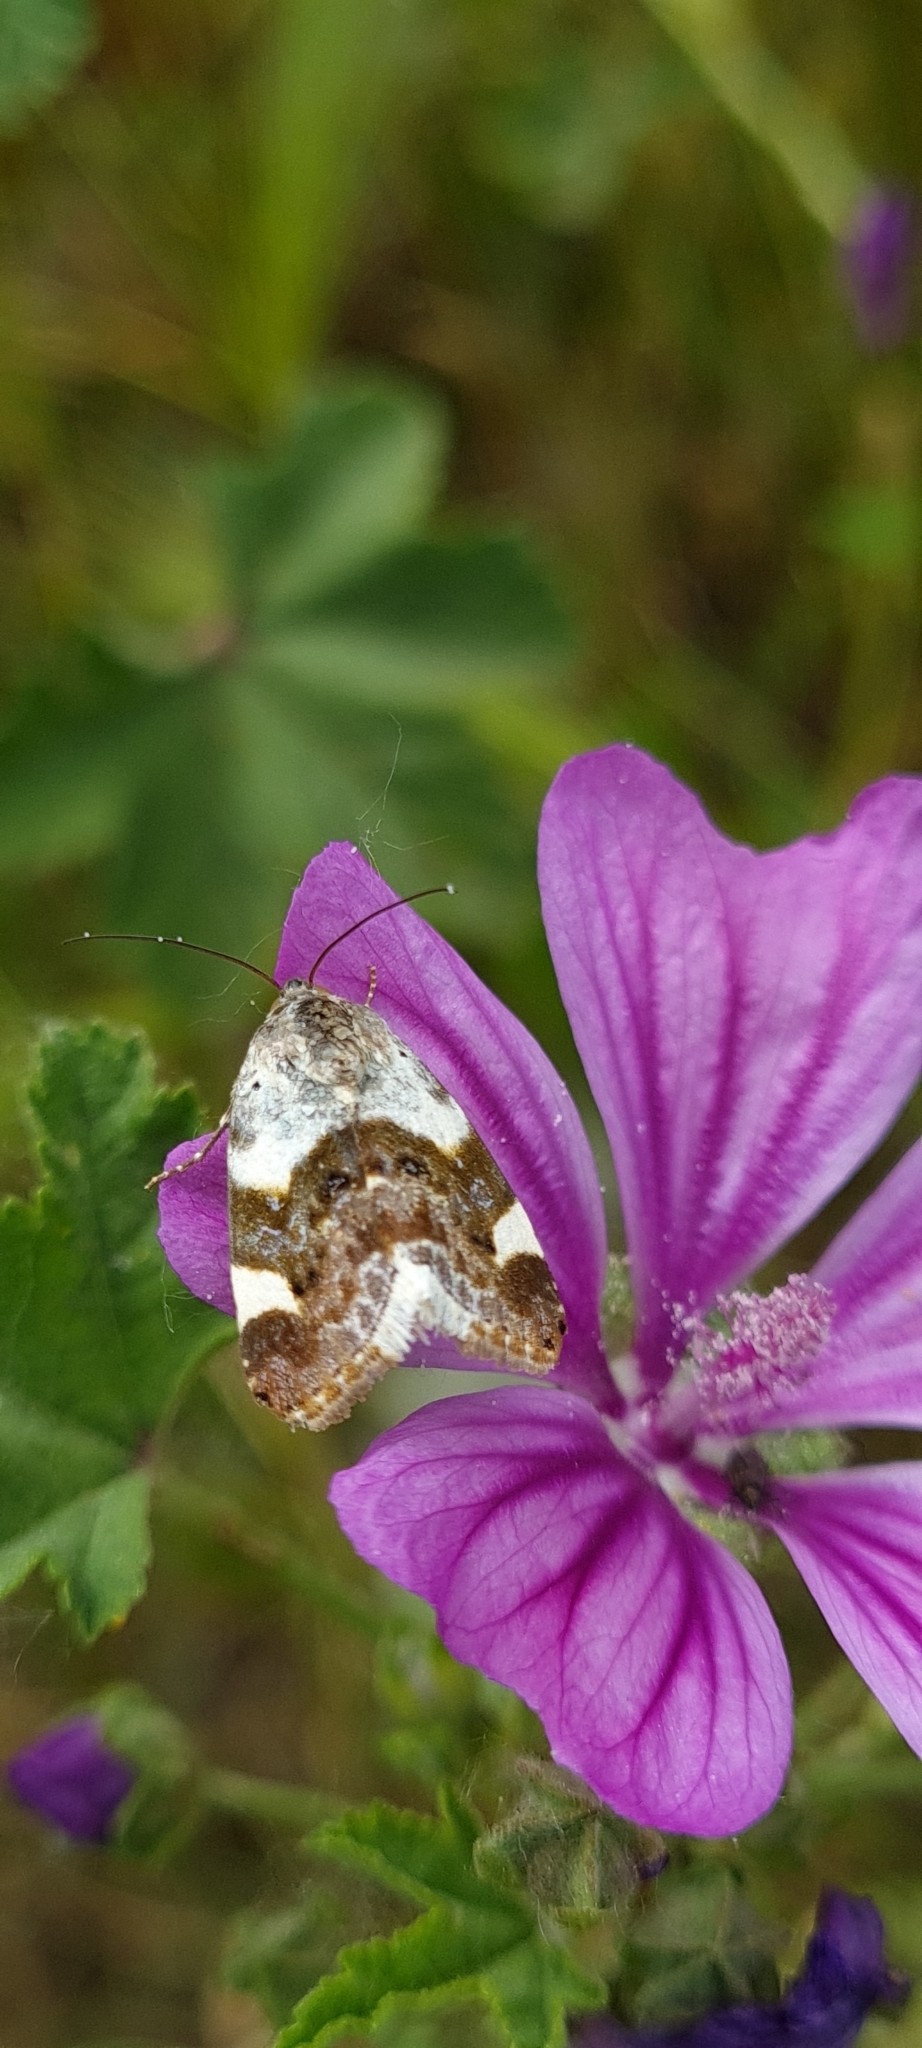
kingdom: Animalia
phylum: Arthropoda
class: Insecta
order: Lepidoptera
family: Noctuidae
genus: Acontia
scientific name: Acontia lucida
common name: Pale shoulder
